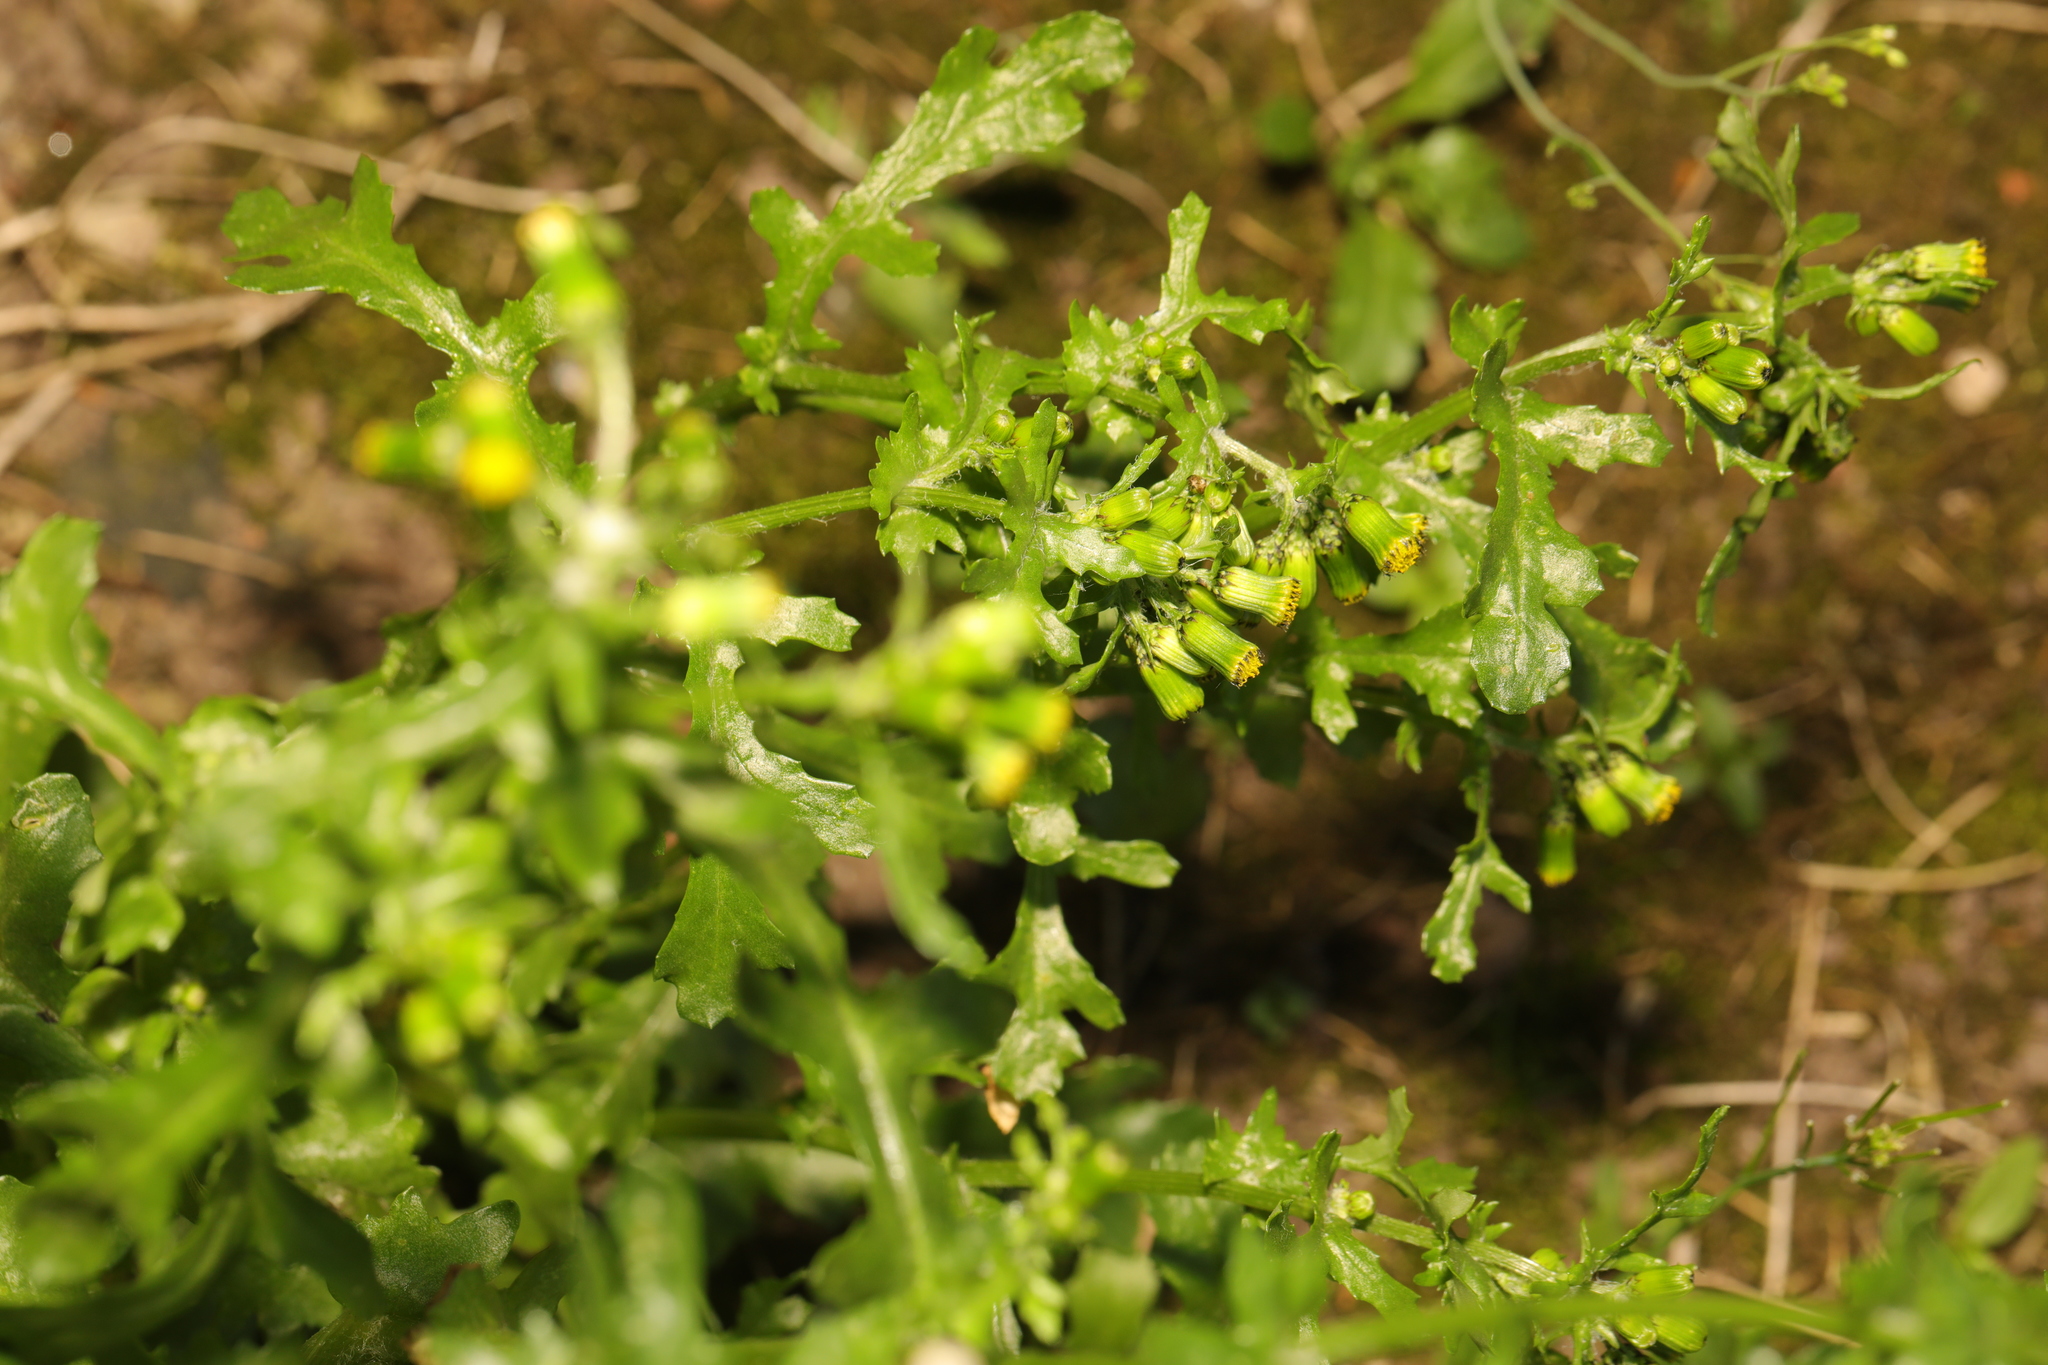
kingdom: Plantae
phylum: Tracheophyta
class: Magnoliopsida
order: Asterales
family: Asteraceae
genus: Senecio
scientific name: Senecio vulgaris
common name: Old-man-in-the-spring
